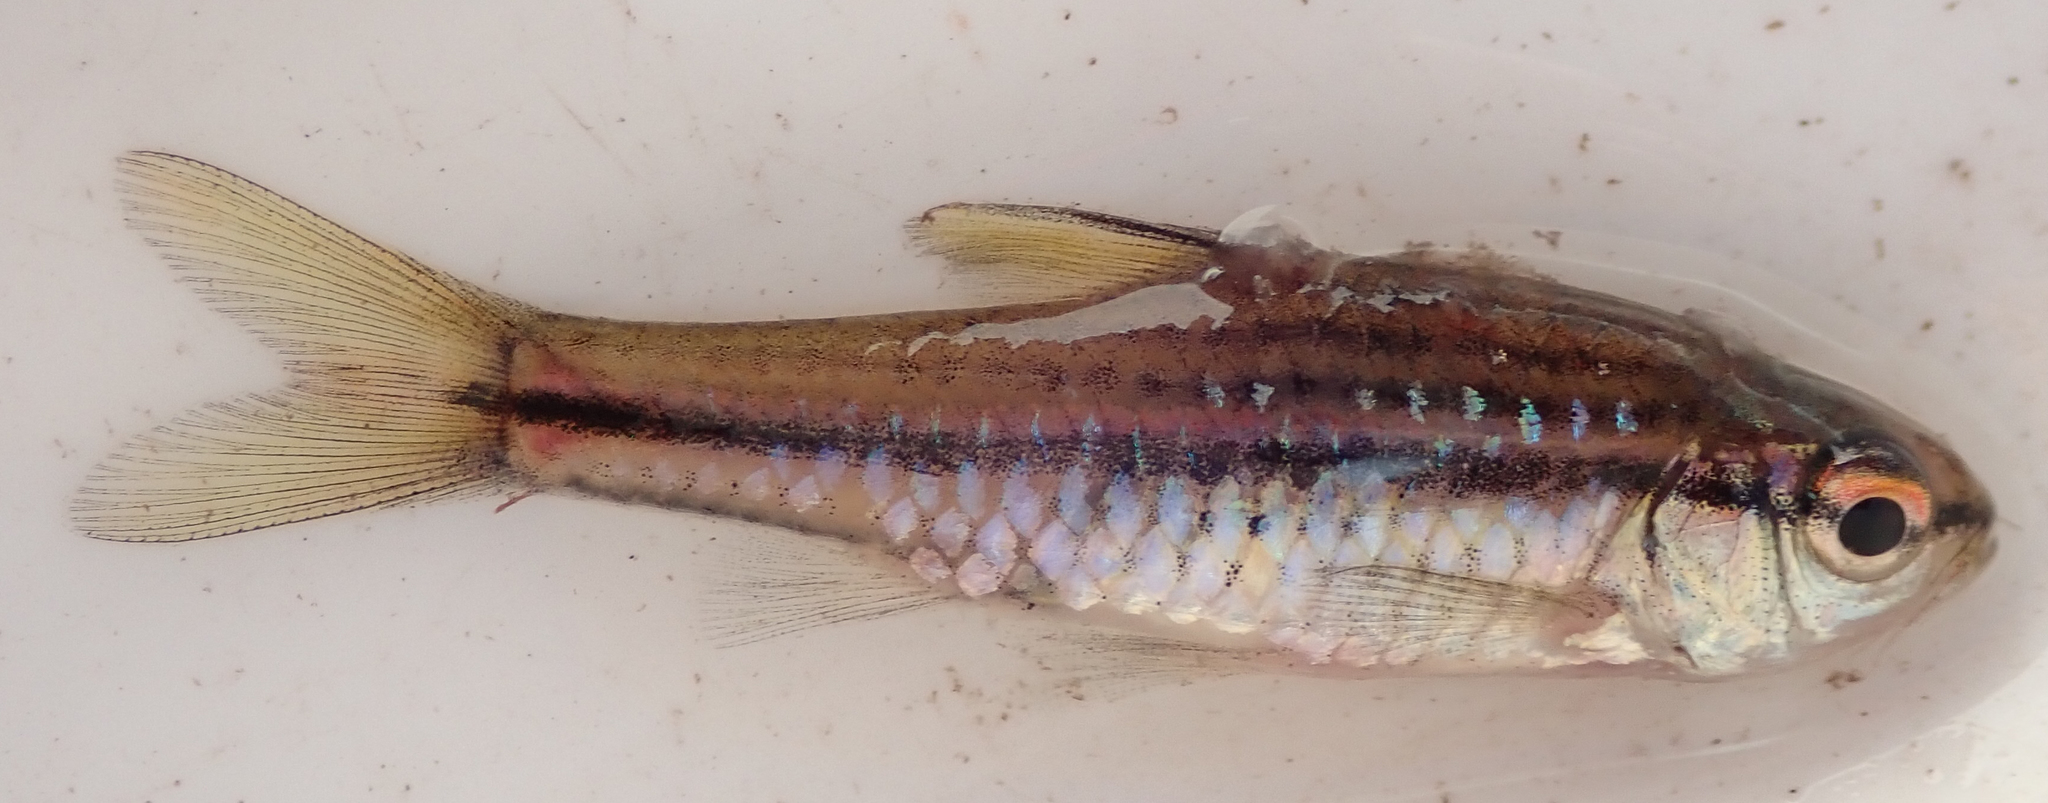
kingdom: Animalia
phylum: Chordata
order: Cypriniformes
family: Cyprinidae
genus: Enteromius
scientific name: Enteromius multilineatus
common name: Copperstripe barb
